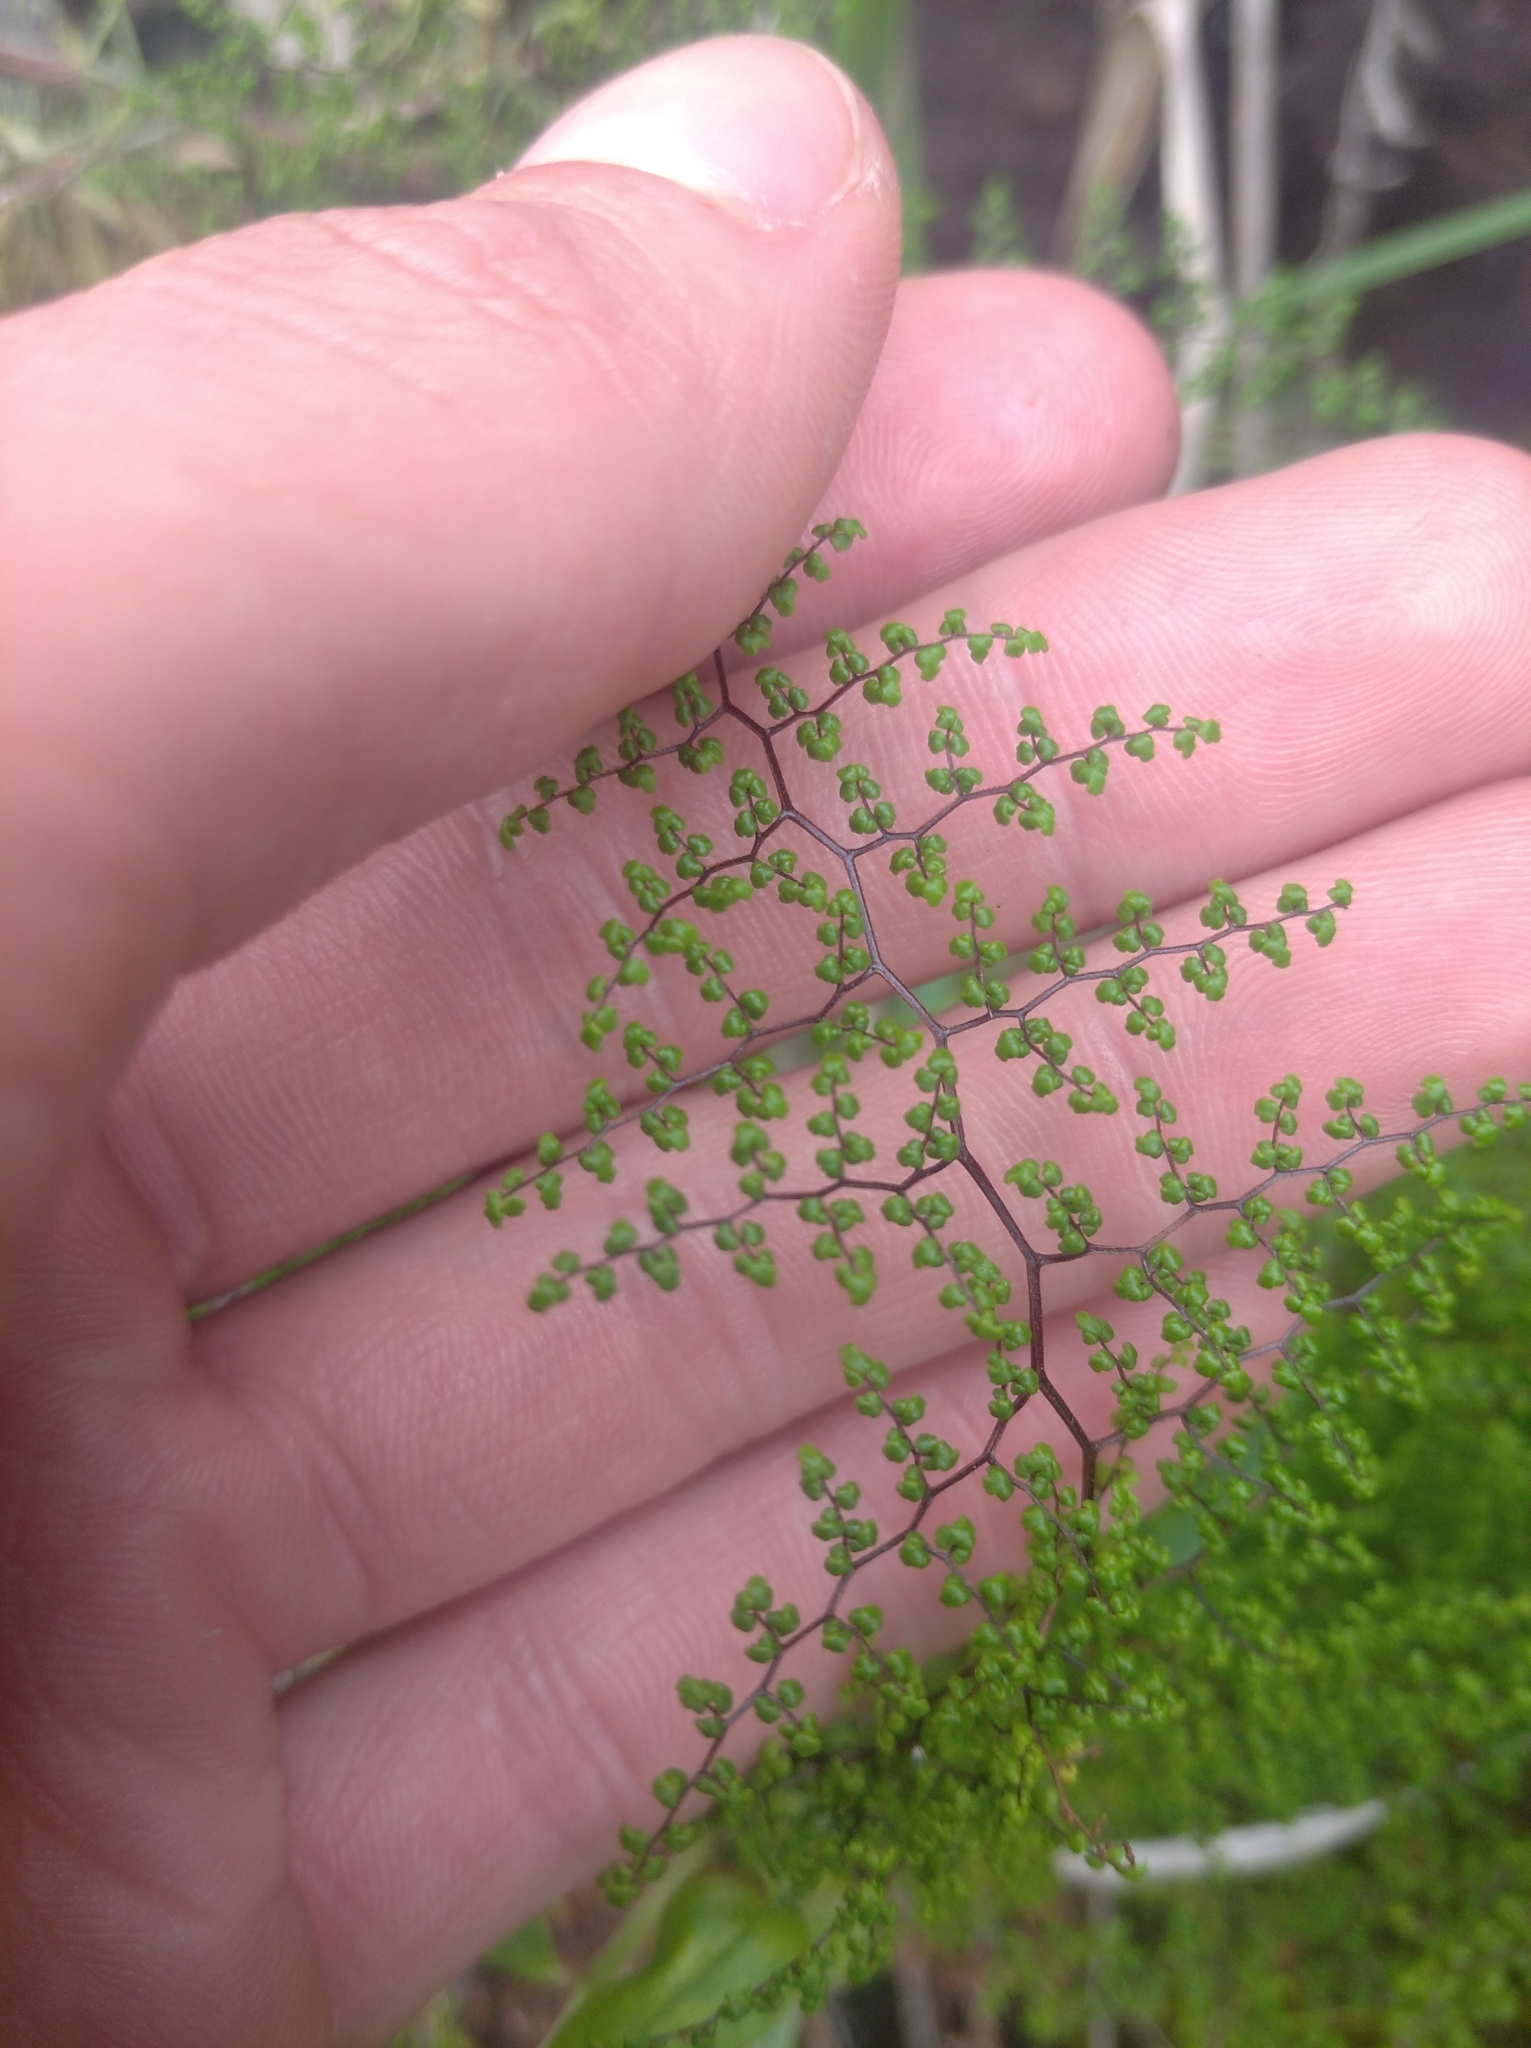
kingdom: Plantae
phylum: Tracheophyta
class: Polypodiopsida
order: Polypodiales
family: Pteridaceae
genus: Adiantopsis
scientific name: Adiantopsis dichotoma
